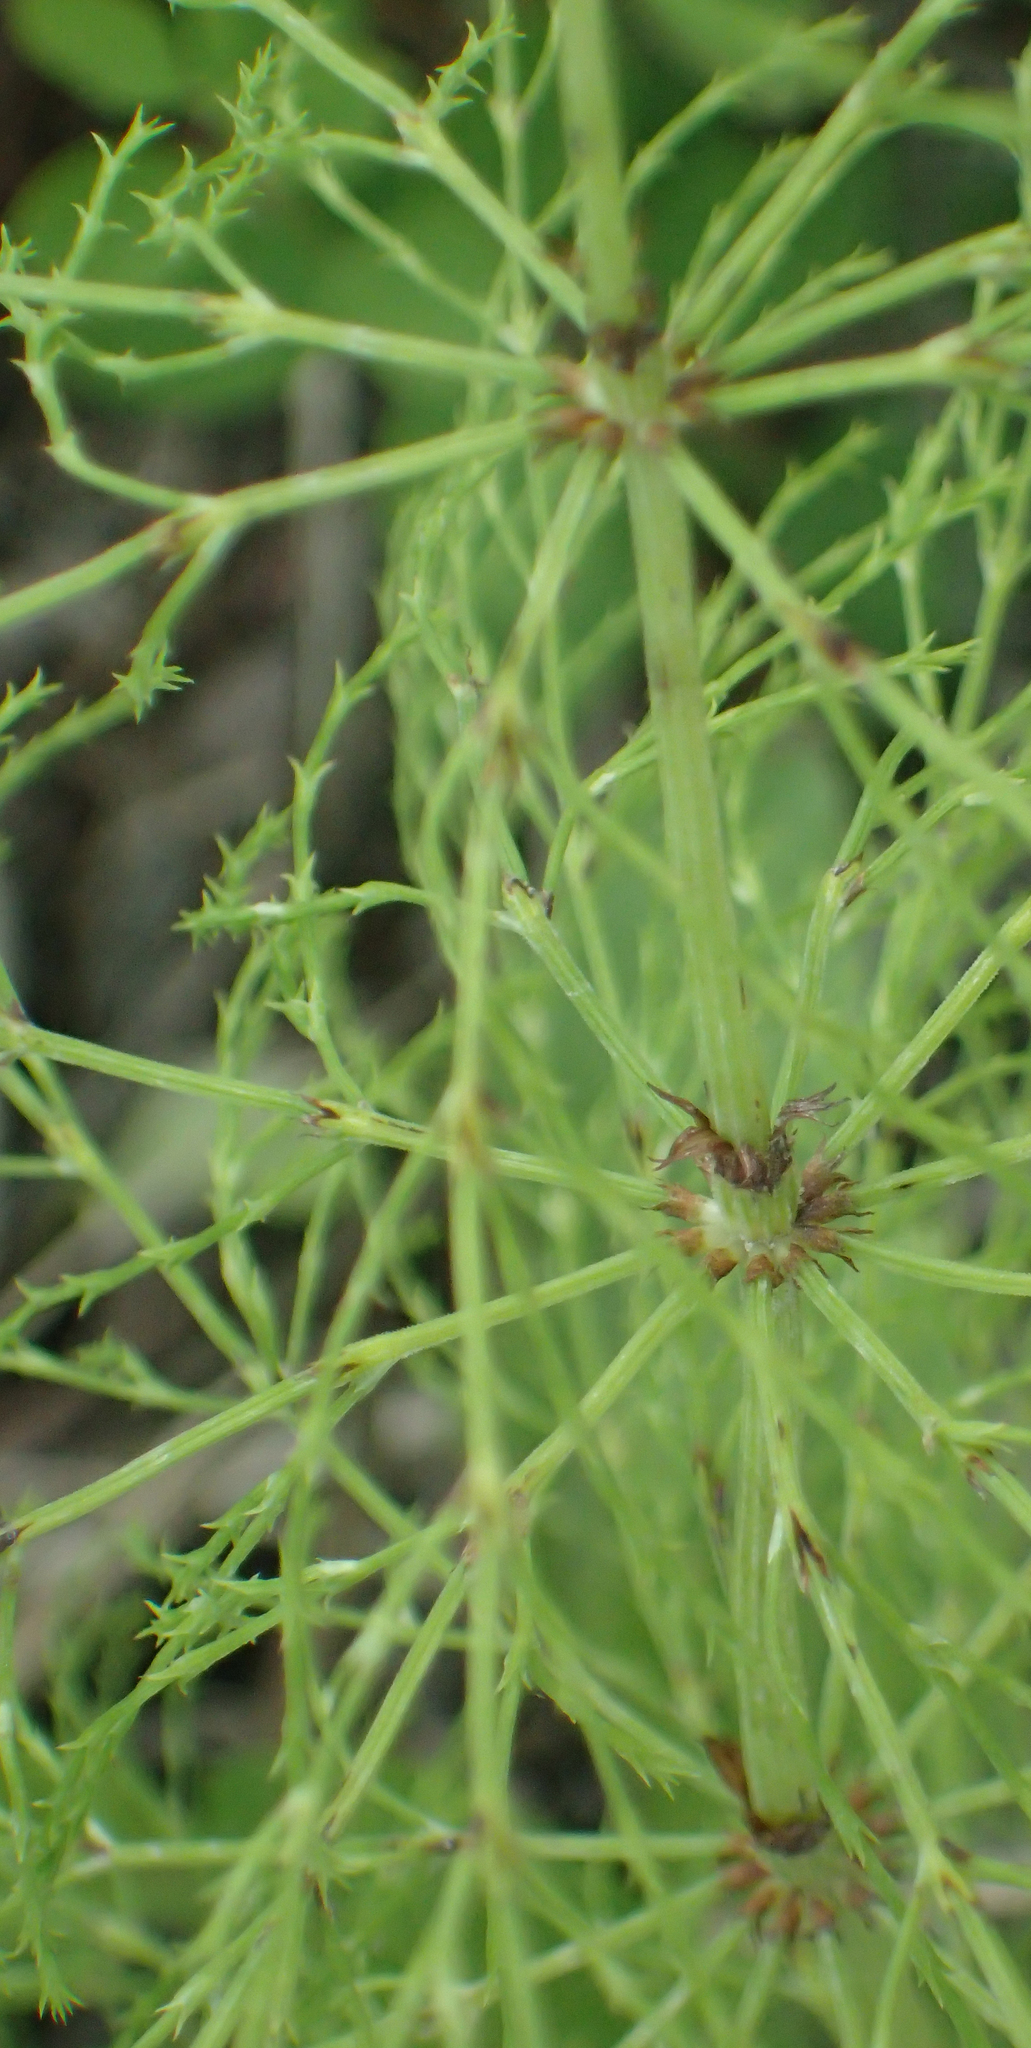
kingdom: Plantae
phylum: Tracheophyta
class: Polypodiopsida
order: Equisetales
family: Equisetaceae
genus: Equisetum
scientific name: Equisetum sylvaticum
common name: Wood horsetail
